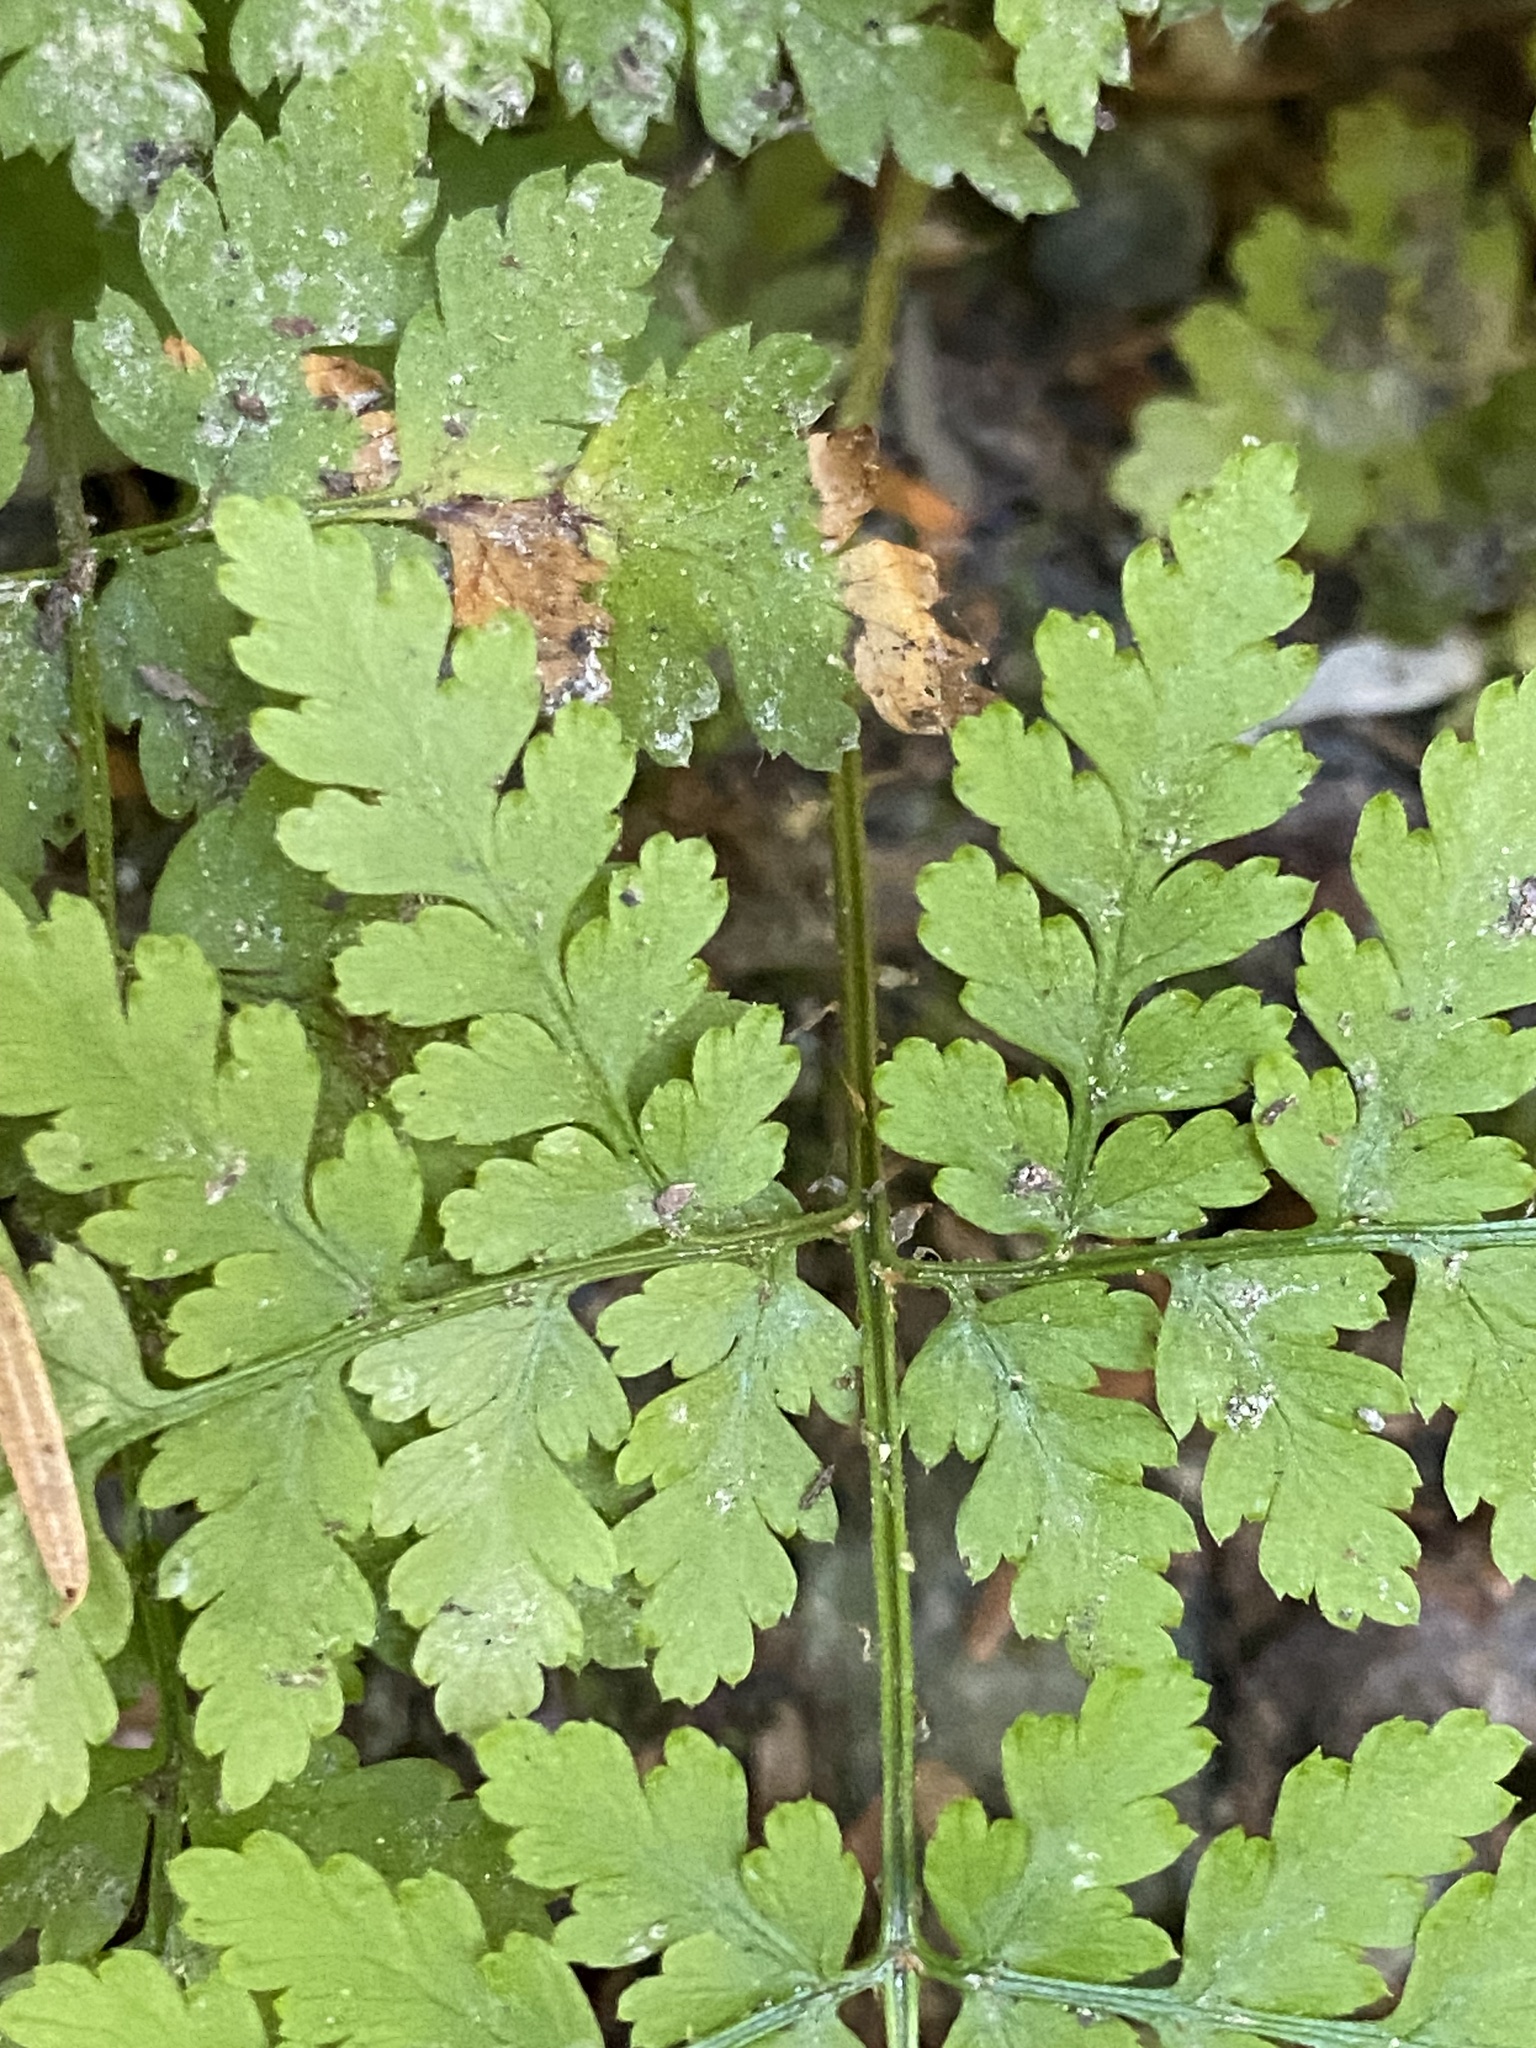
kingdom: Plantae
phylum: Tracheophyta
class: Polypodiopsida
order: Polypodiales
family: Dryopteridaceae
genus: Dryopteris
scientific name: Dryopteris expansa
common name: Northern buckler fern
